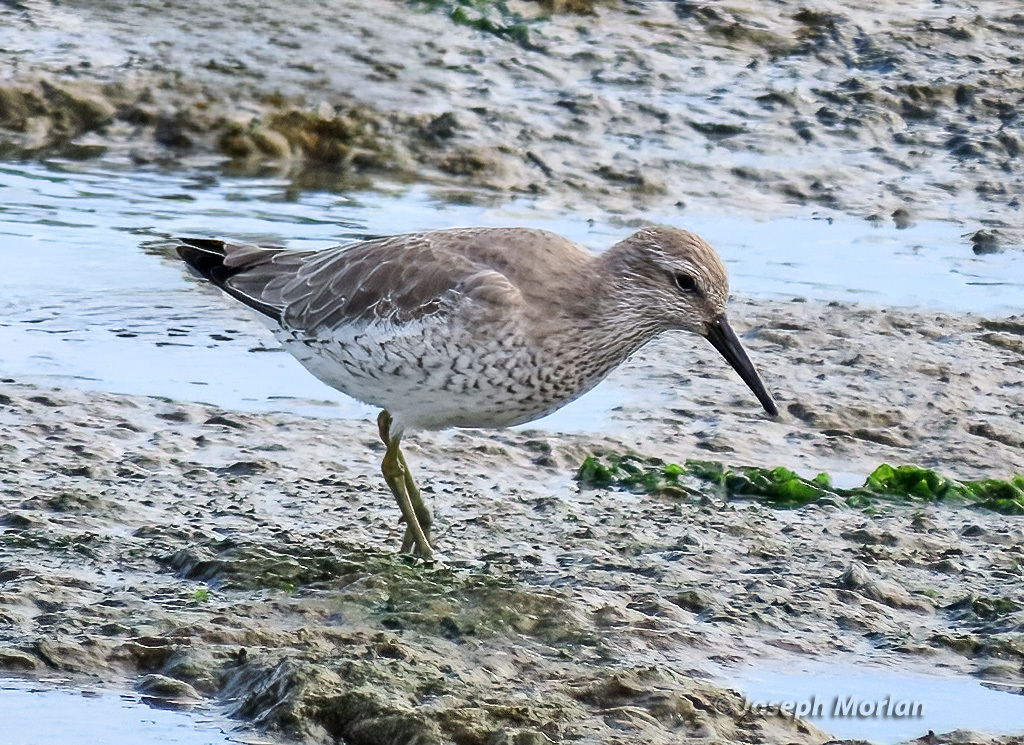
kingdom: Animalia
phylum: Chordata
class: Aves
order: Charadriiformes
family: Scolopacidae
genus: Calidris
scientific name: Calidris canutus
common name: Red knot
